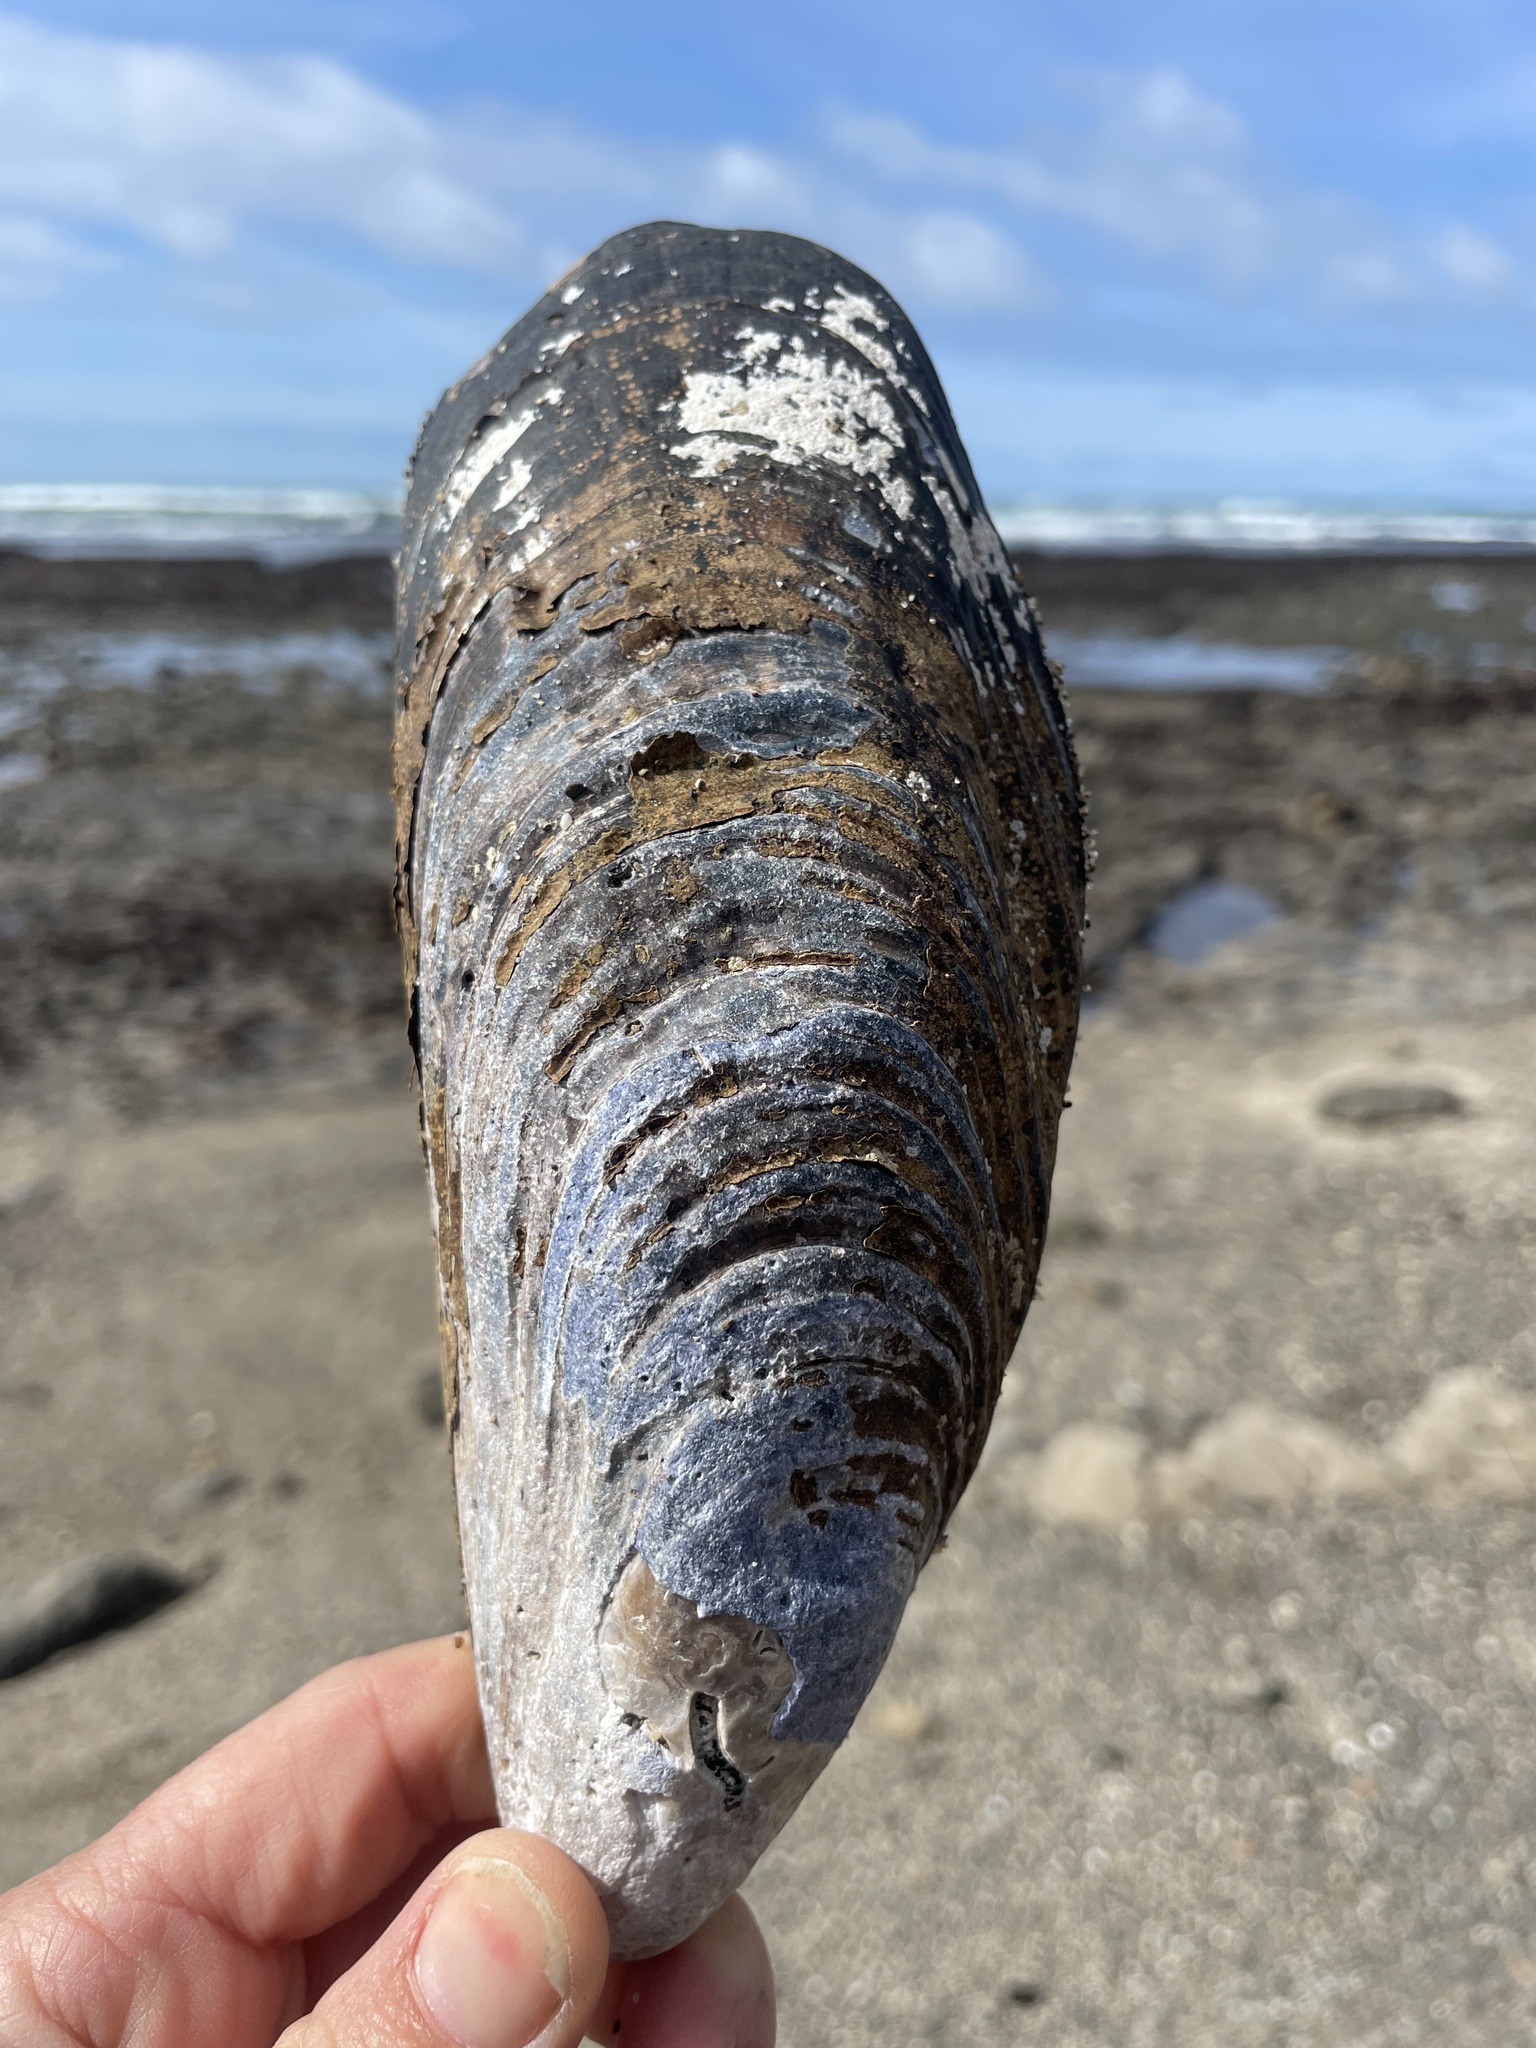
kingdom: Animalia
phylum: Mollusca
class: Bivalvia
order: Mytilida
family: Mytilidae
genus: Mytilus
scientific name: Mytilus californianus
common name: California mussel
